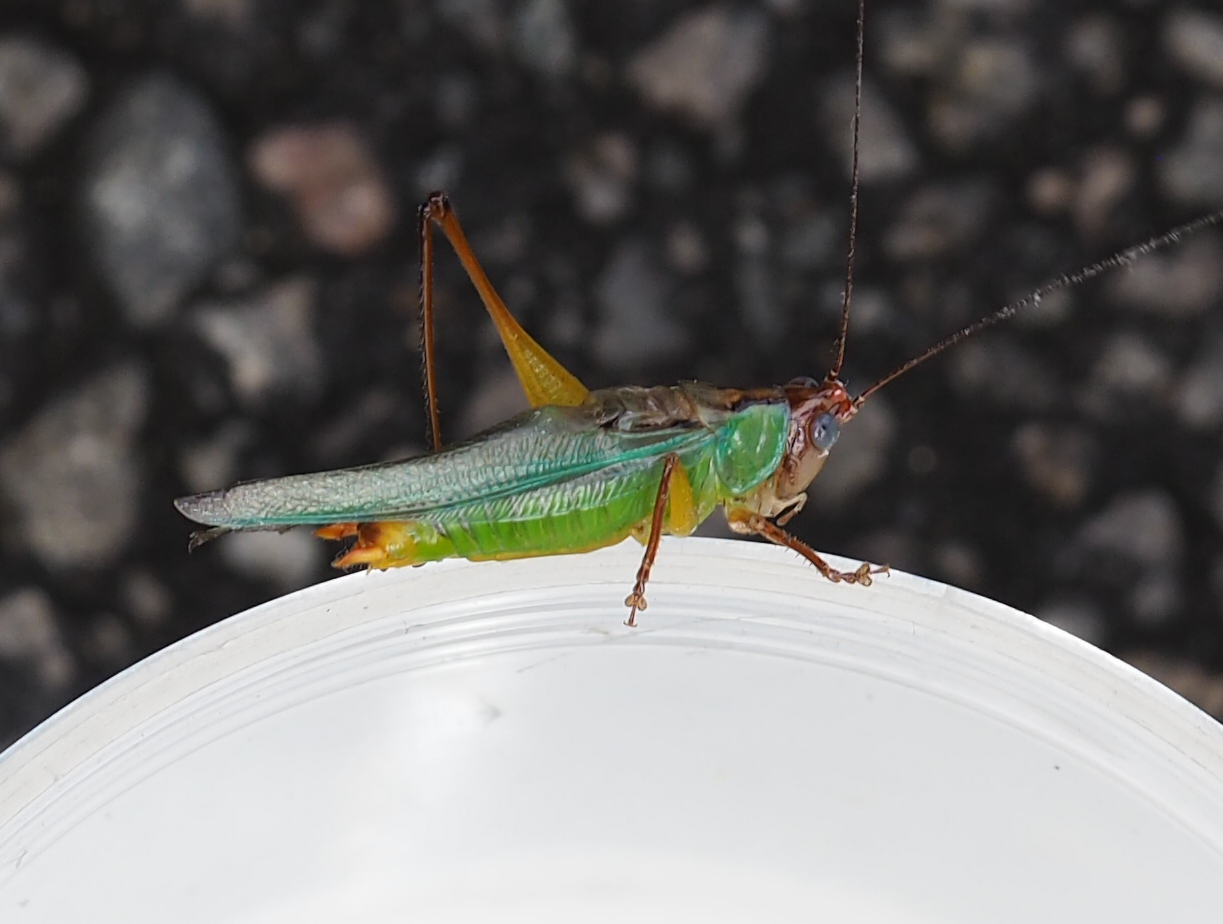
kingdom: Animalia
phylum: Arthropoda
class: Insecta
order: Orthoptera
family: Tettigoniidae
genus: Orchelimum
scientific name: Orchelimum pulchellum
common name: Handsome meadow katydid
